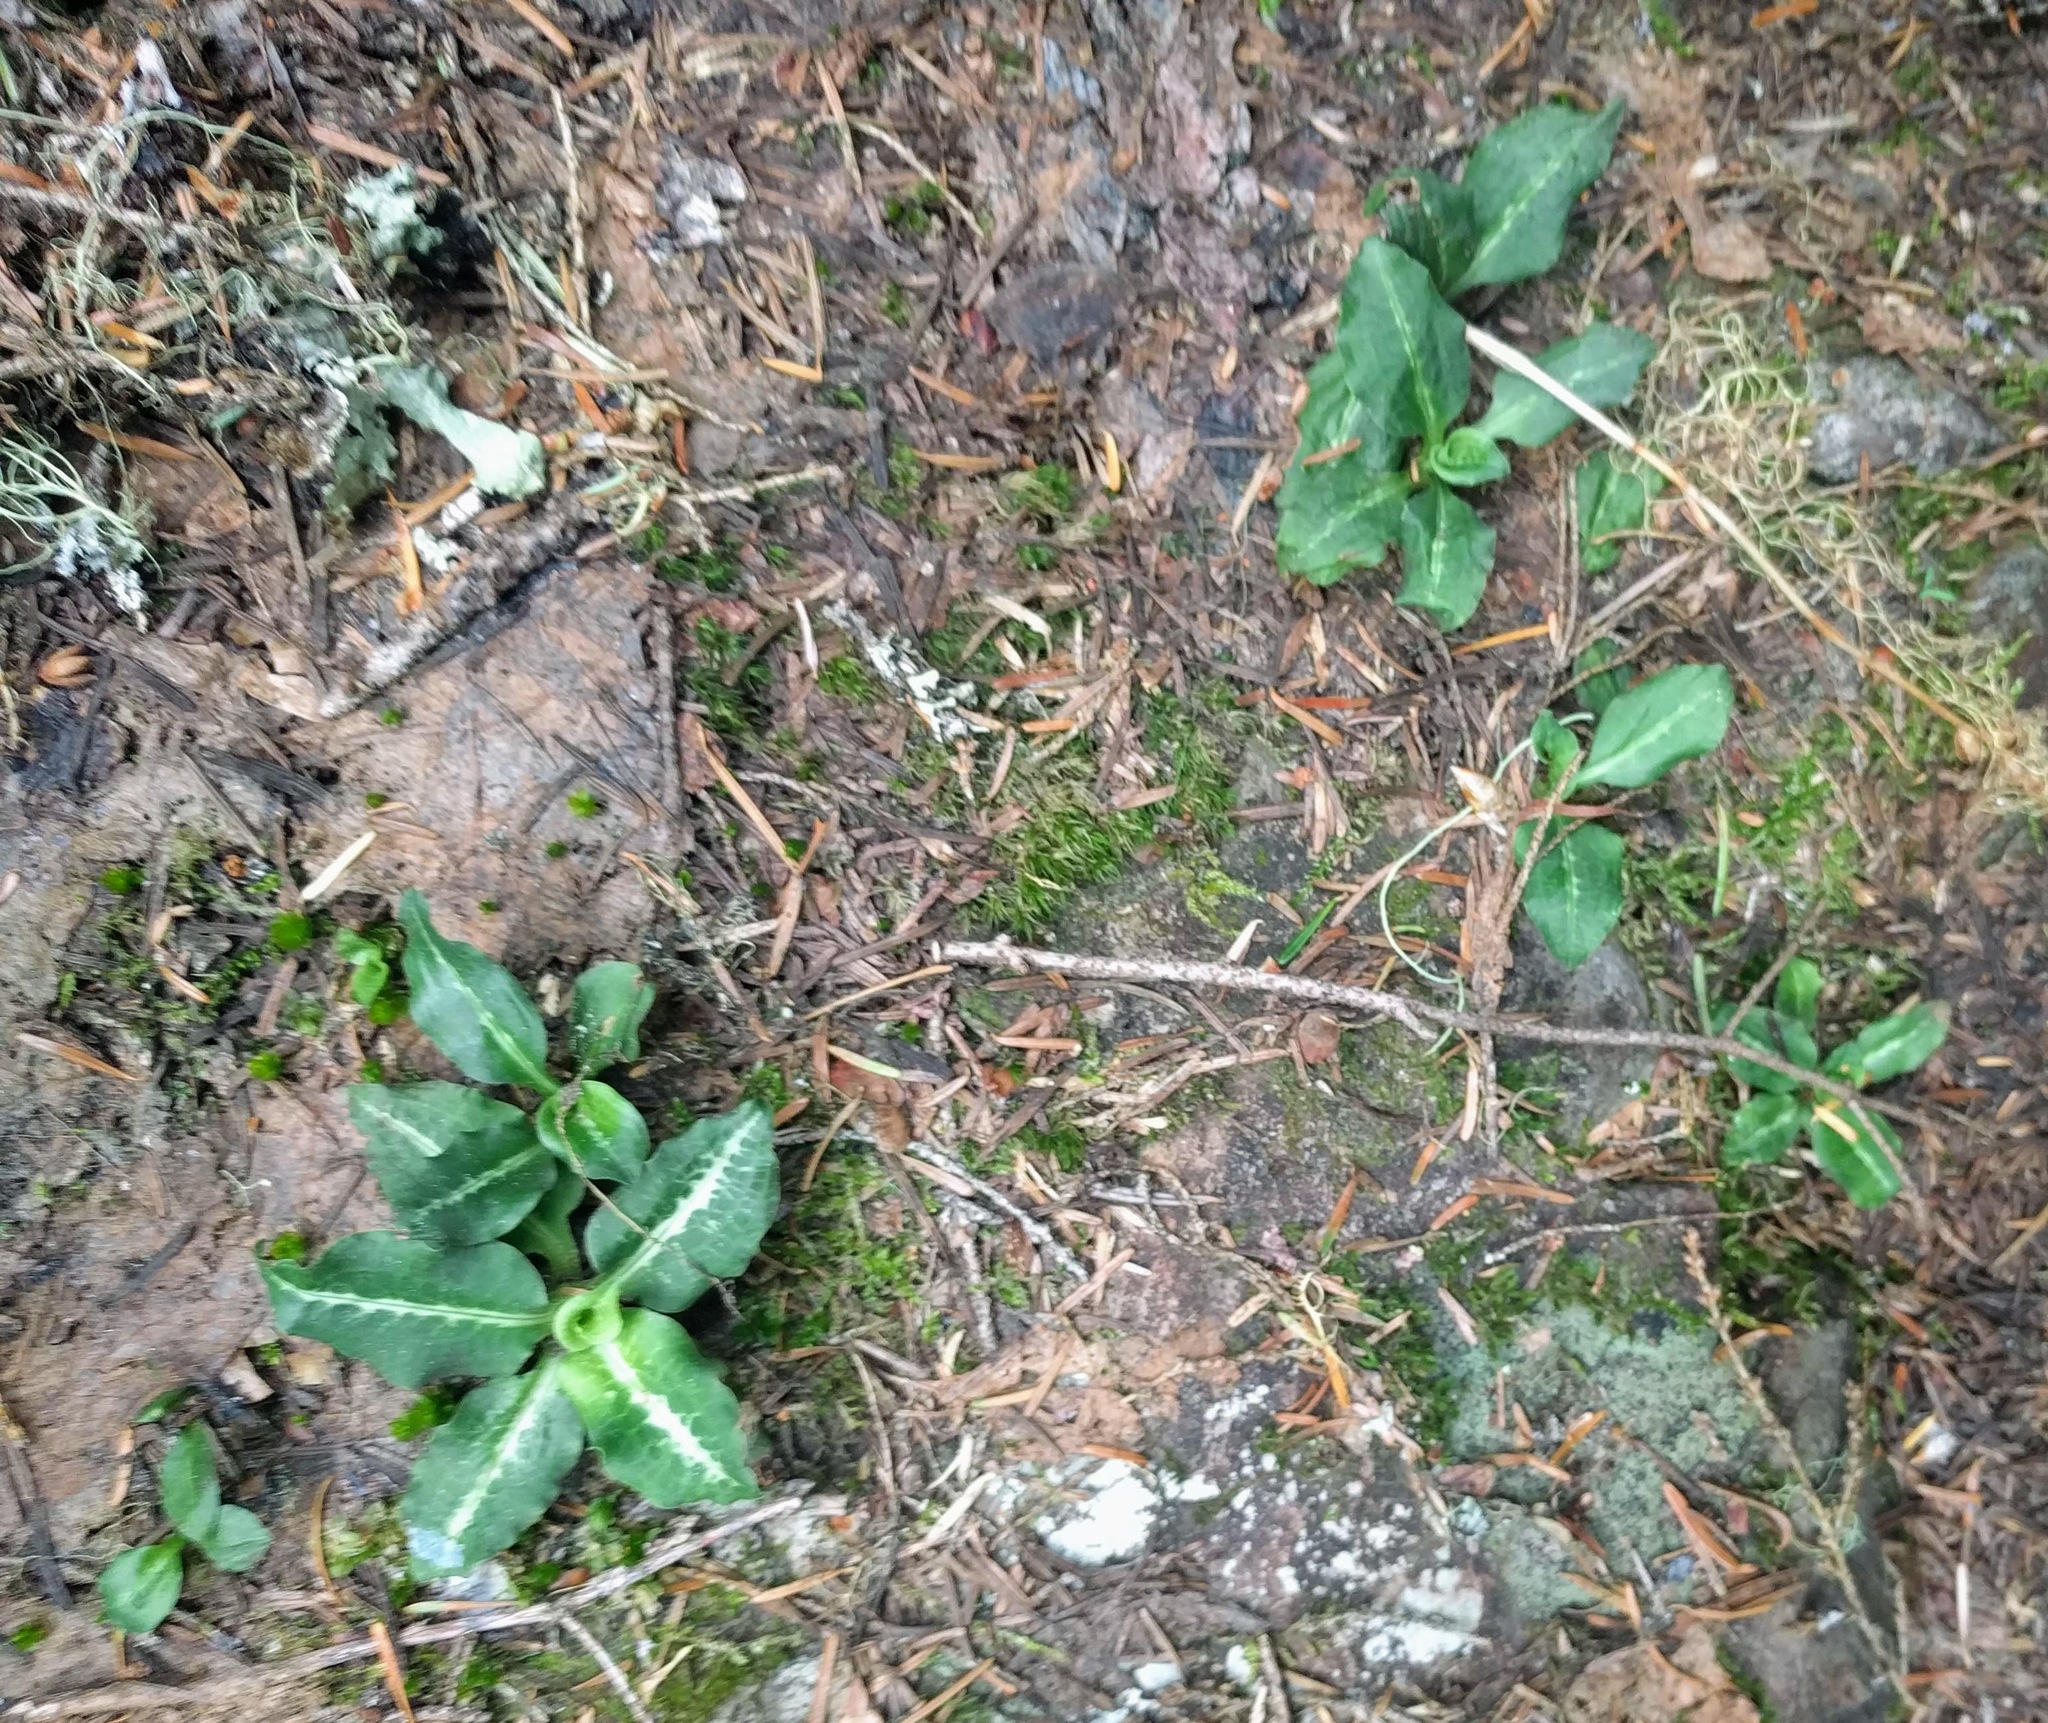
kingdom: Plantae
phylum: Tracheophyta
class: Liliopsida
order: Asparagales
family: Orchidaceae
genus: Goodyera
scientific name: Goodyera oblongifolia
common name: Giant rattlesnake-plantain
